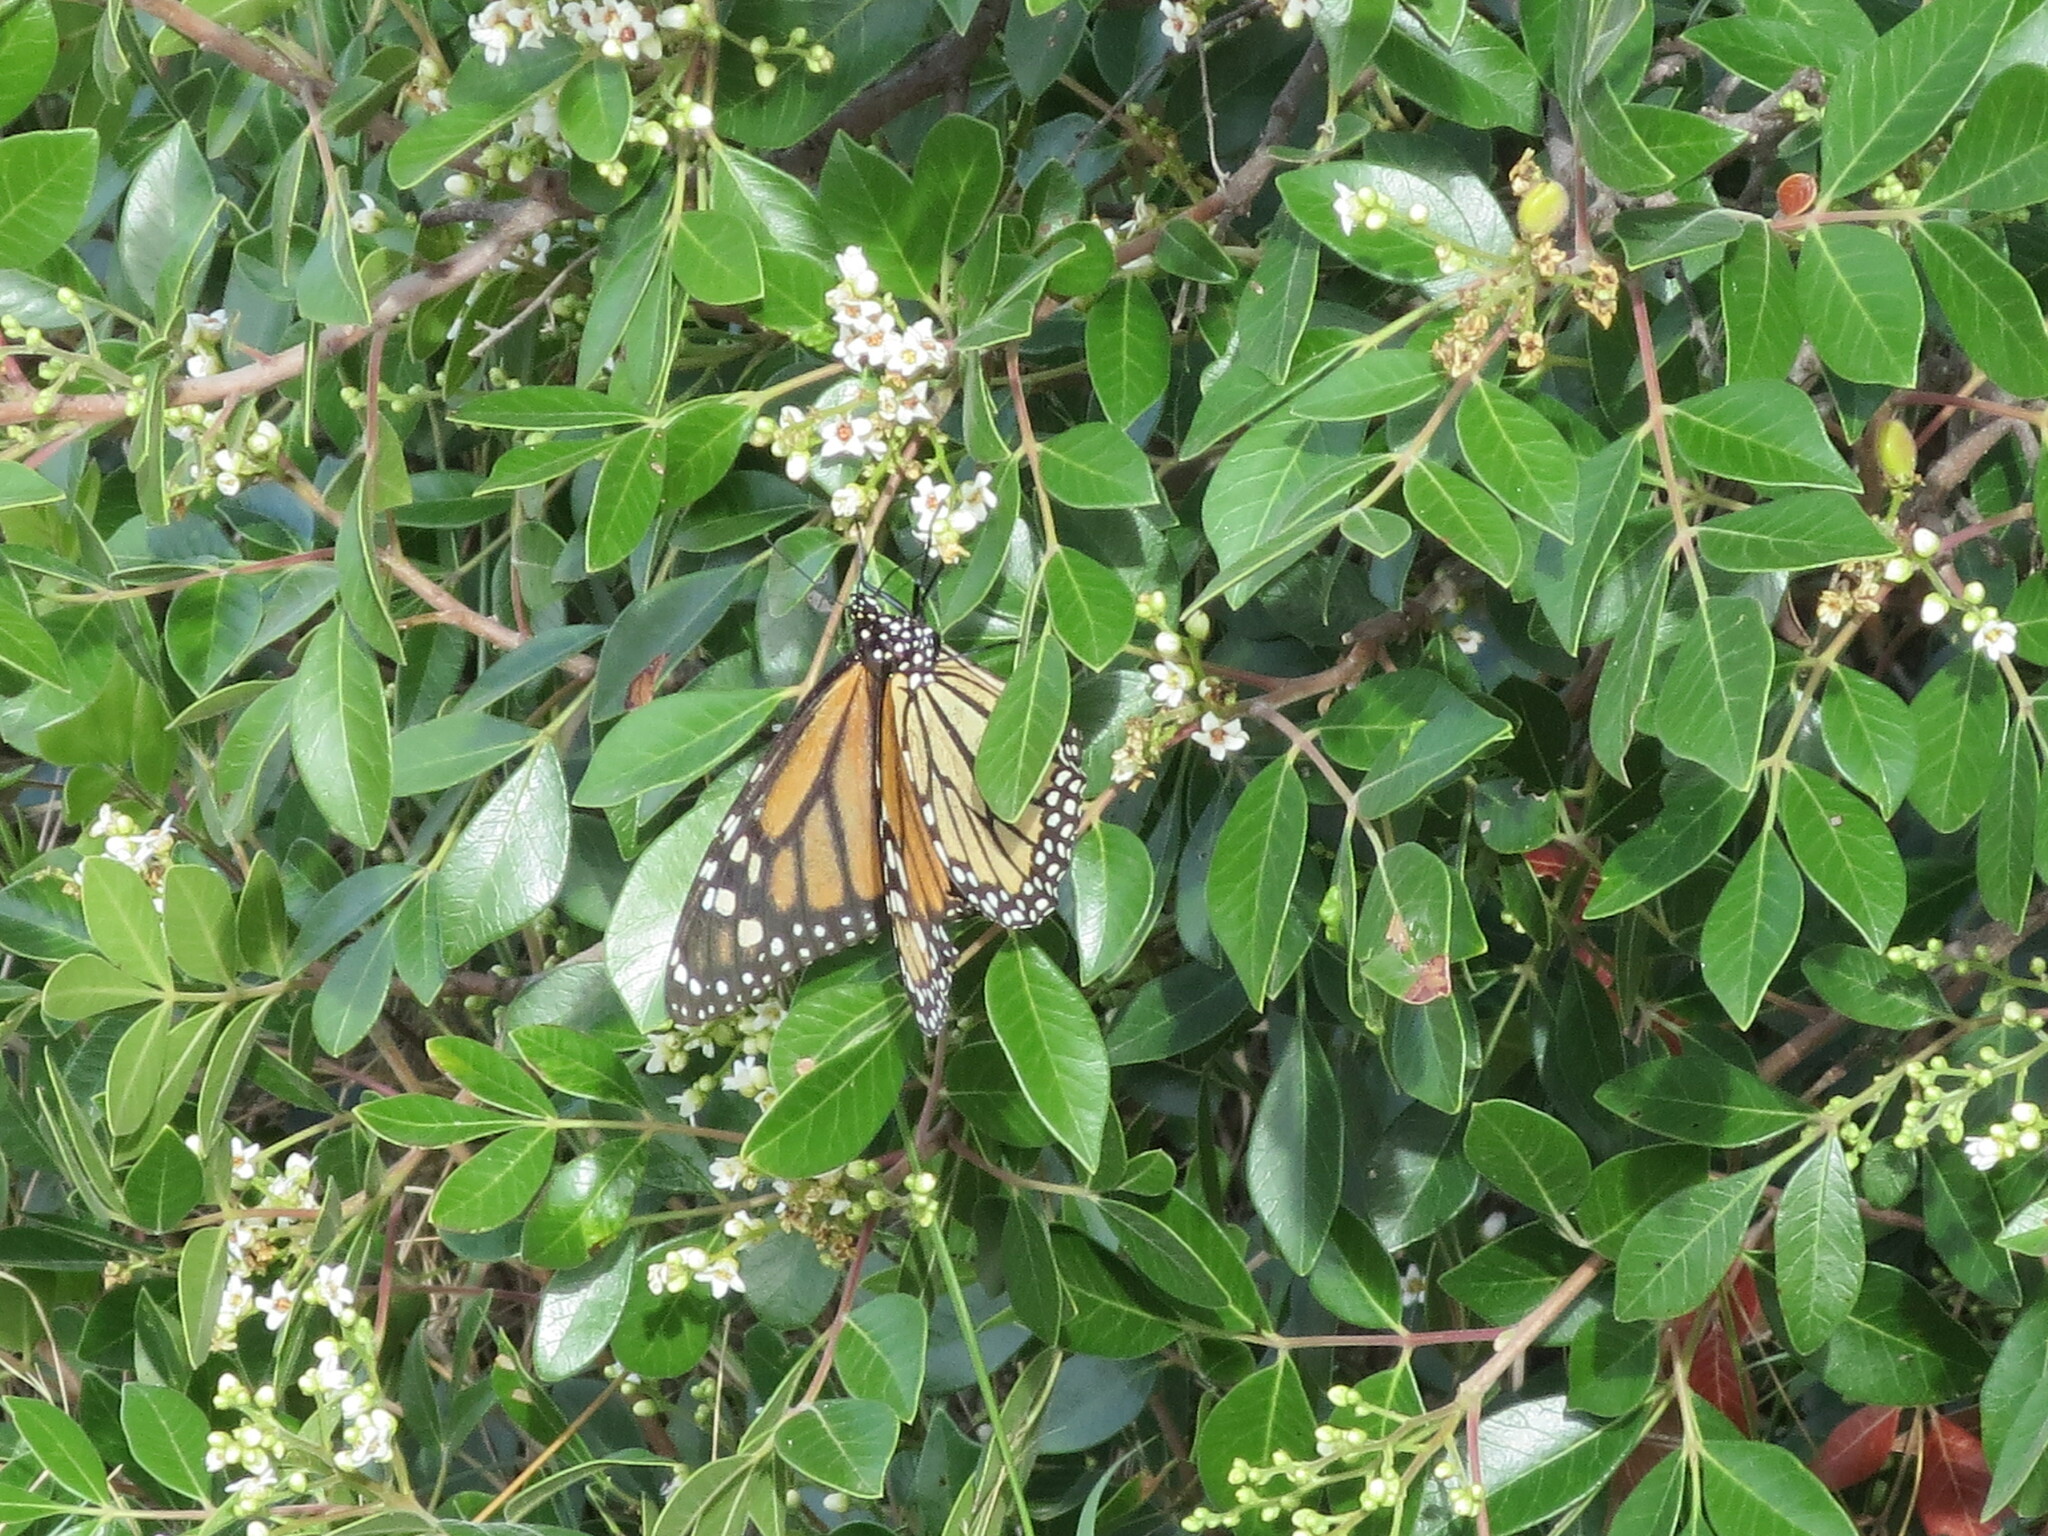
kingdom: Animalia
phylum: Arthropoda
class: Insecta
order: Lepidoptera
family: Nymphalidae
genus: Danaus
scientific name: Danaus plexippus
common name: Monarch
